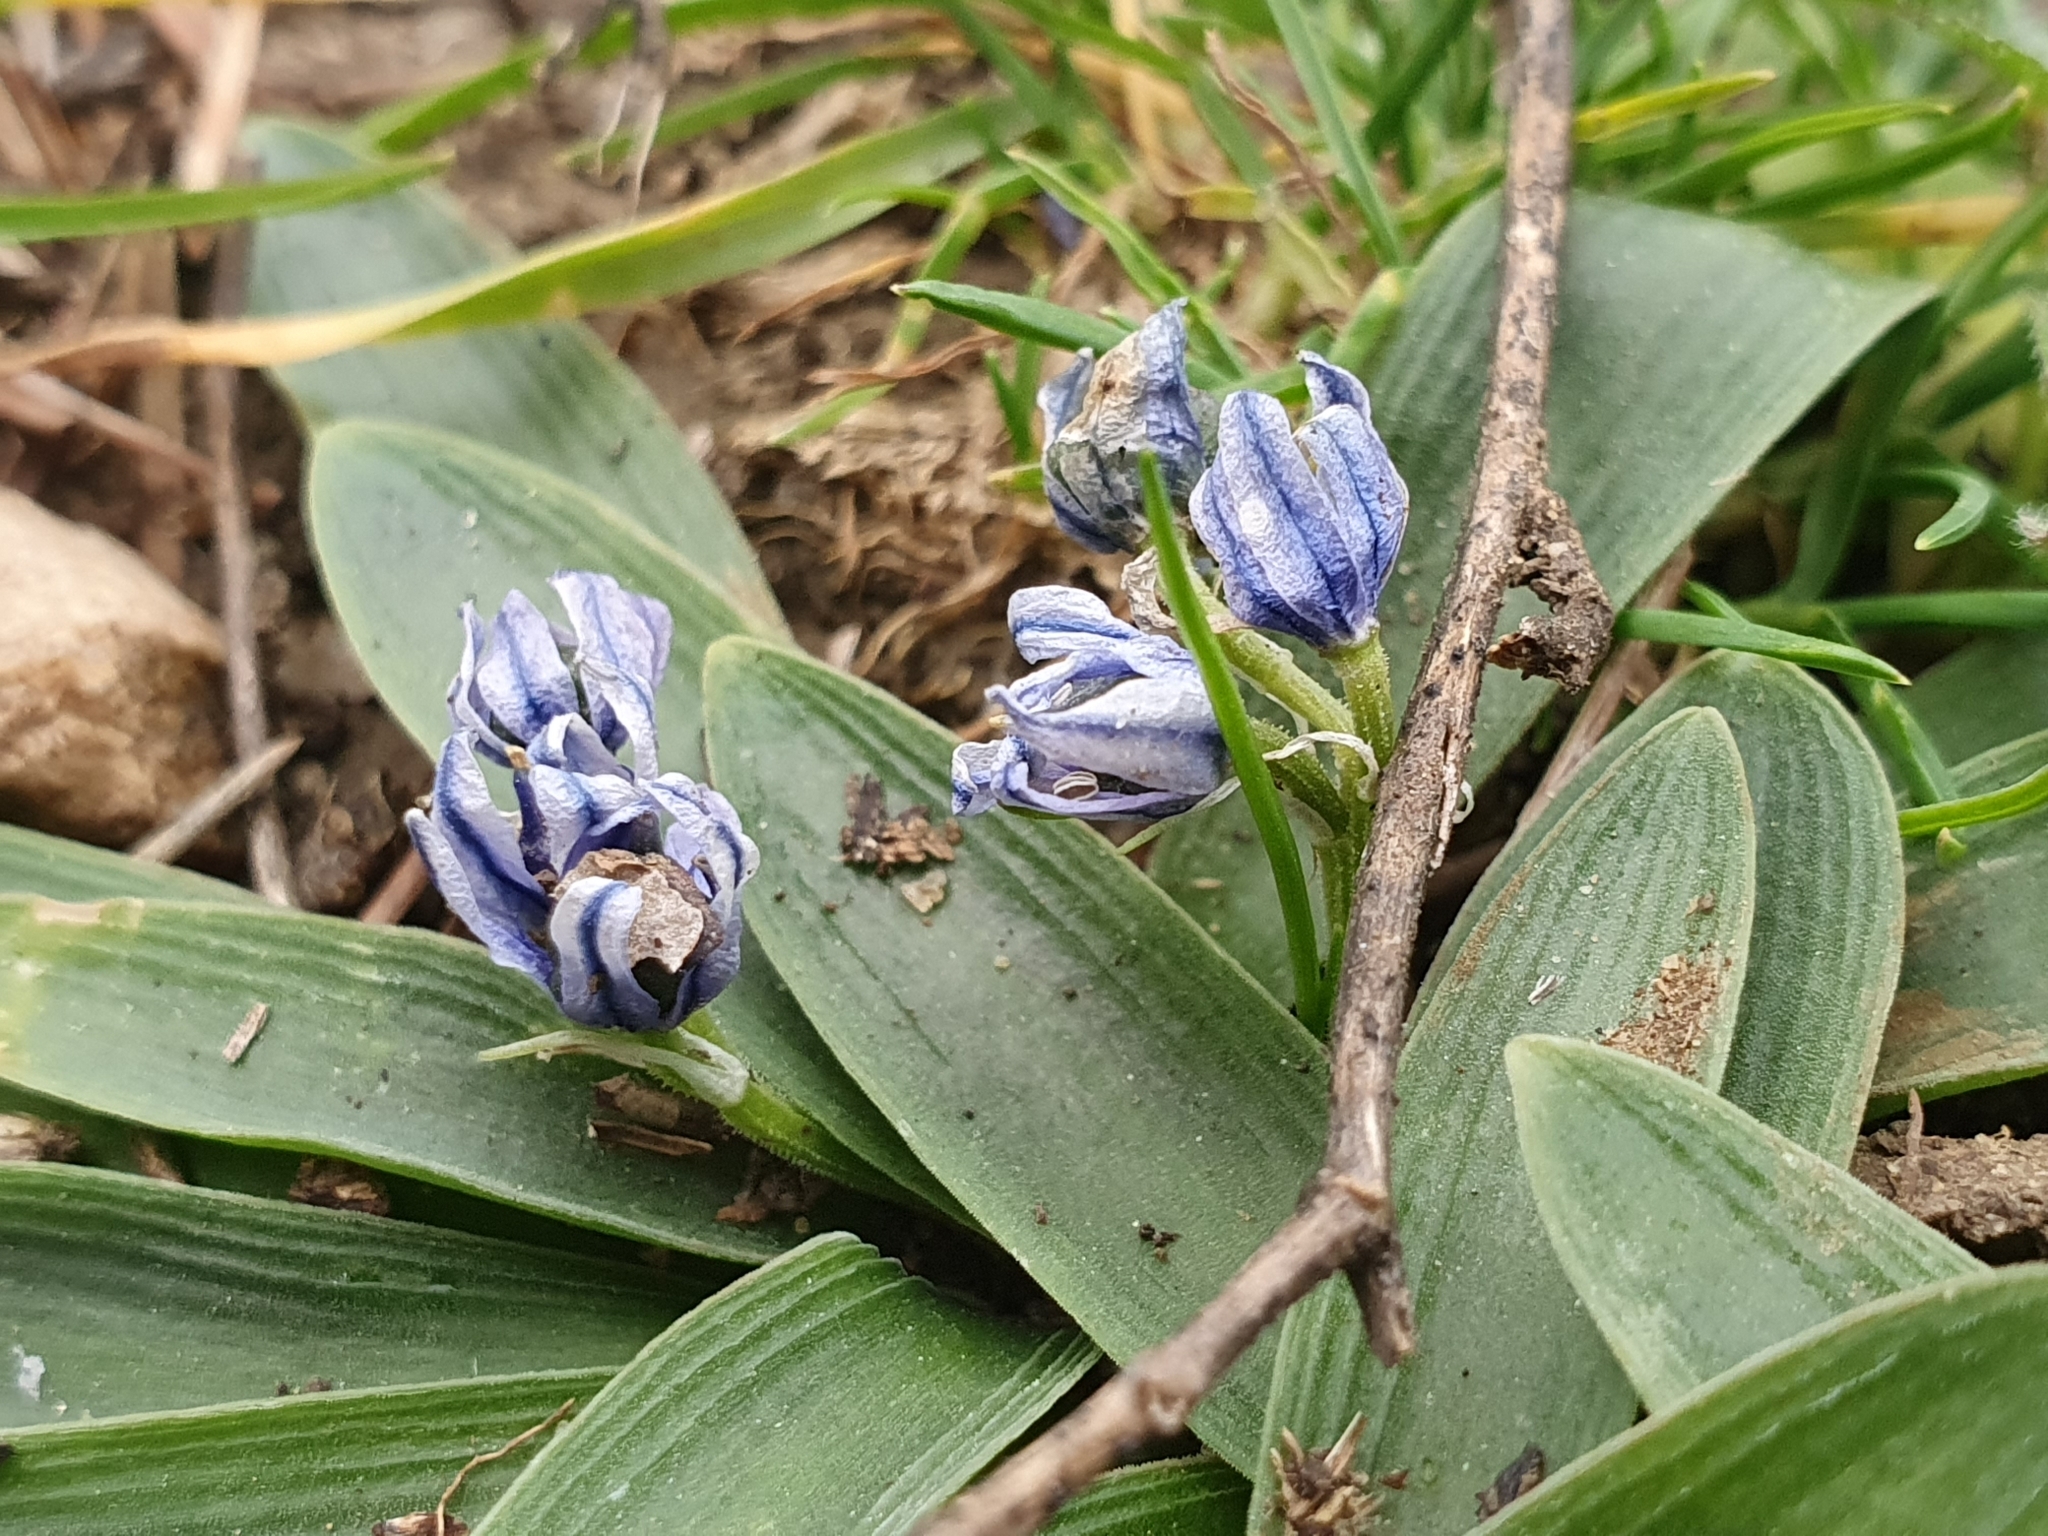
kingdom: Plantae
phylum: Tracheophyta
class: Liliopsida
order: Asparagales
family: Asparagaceae
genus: Hyacinthoides
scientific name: Hyacinthoides lingulata
